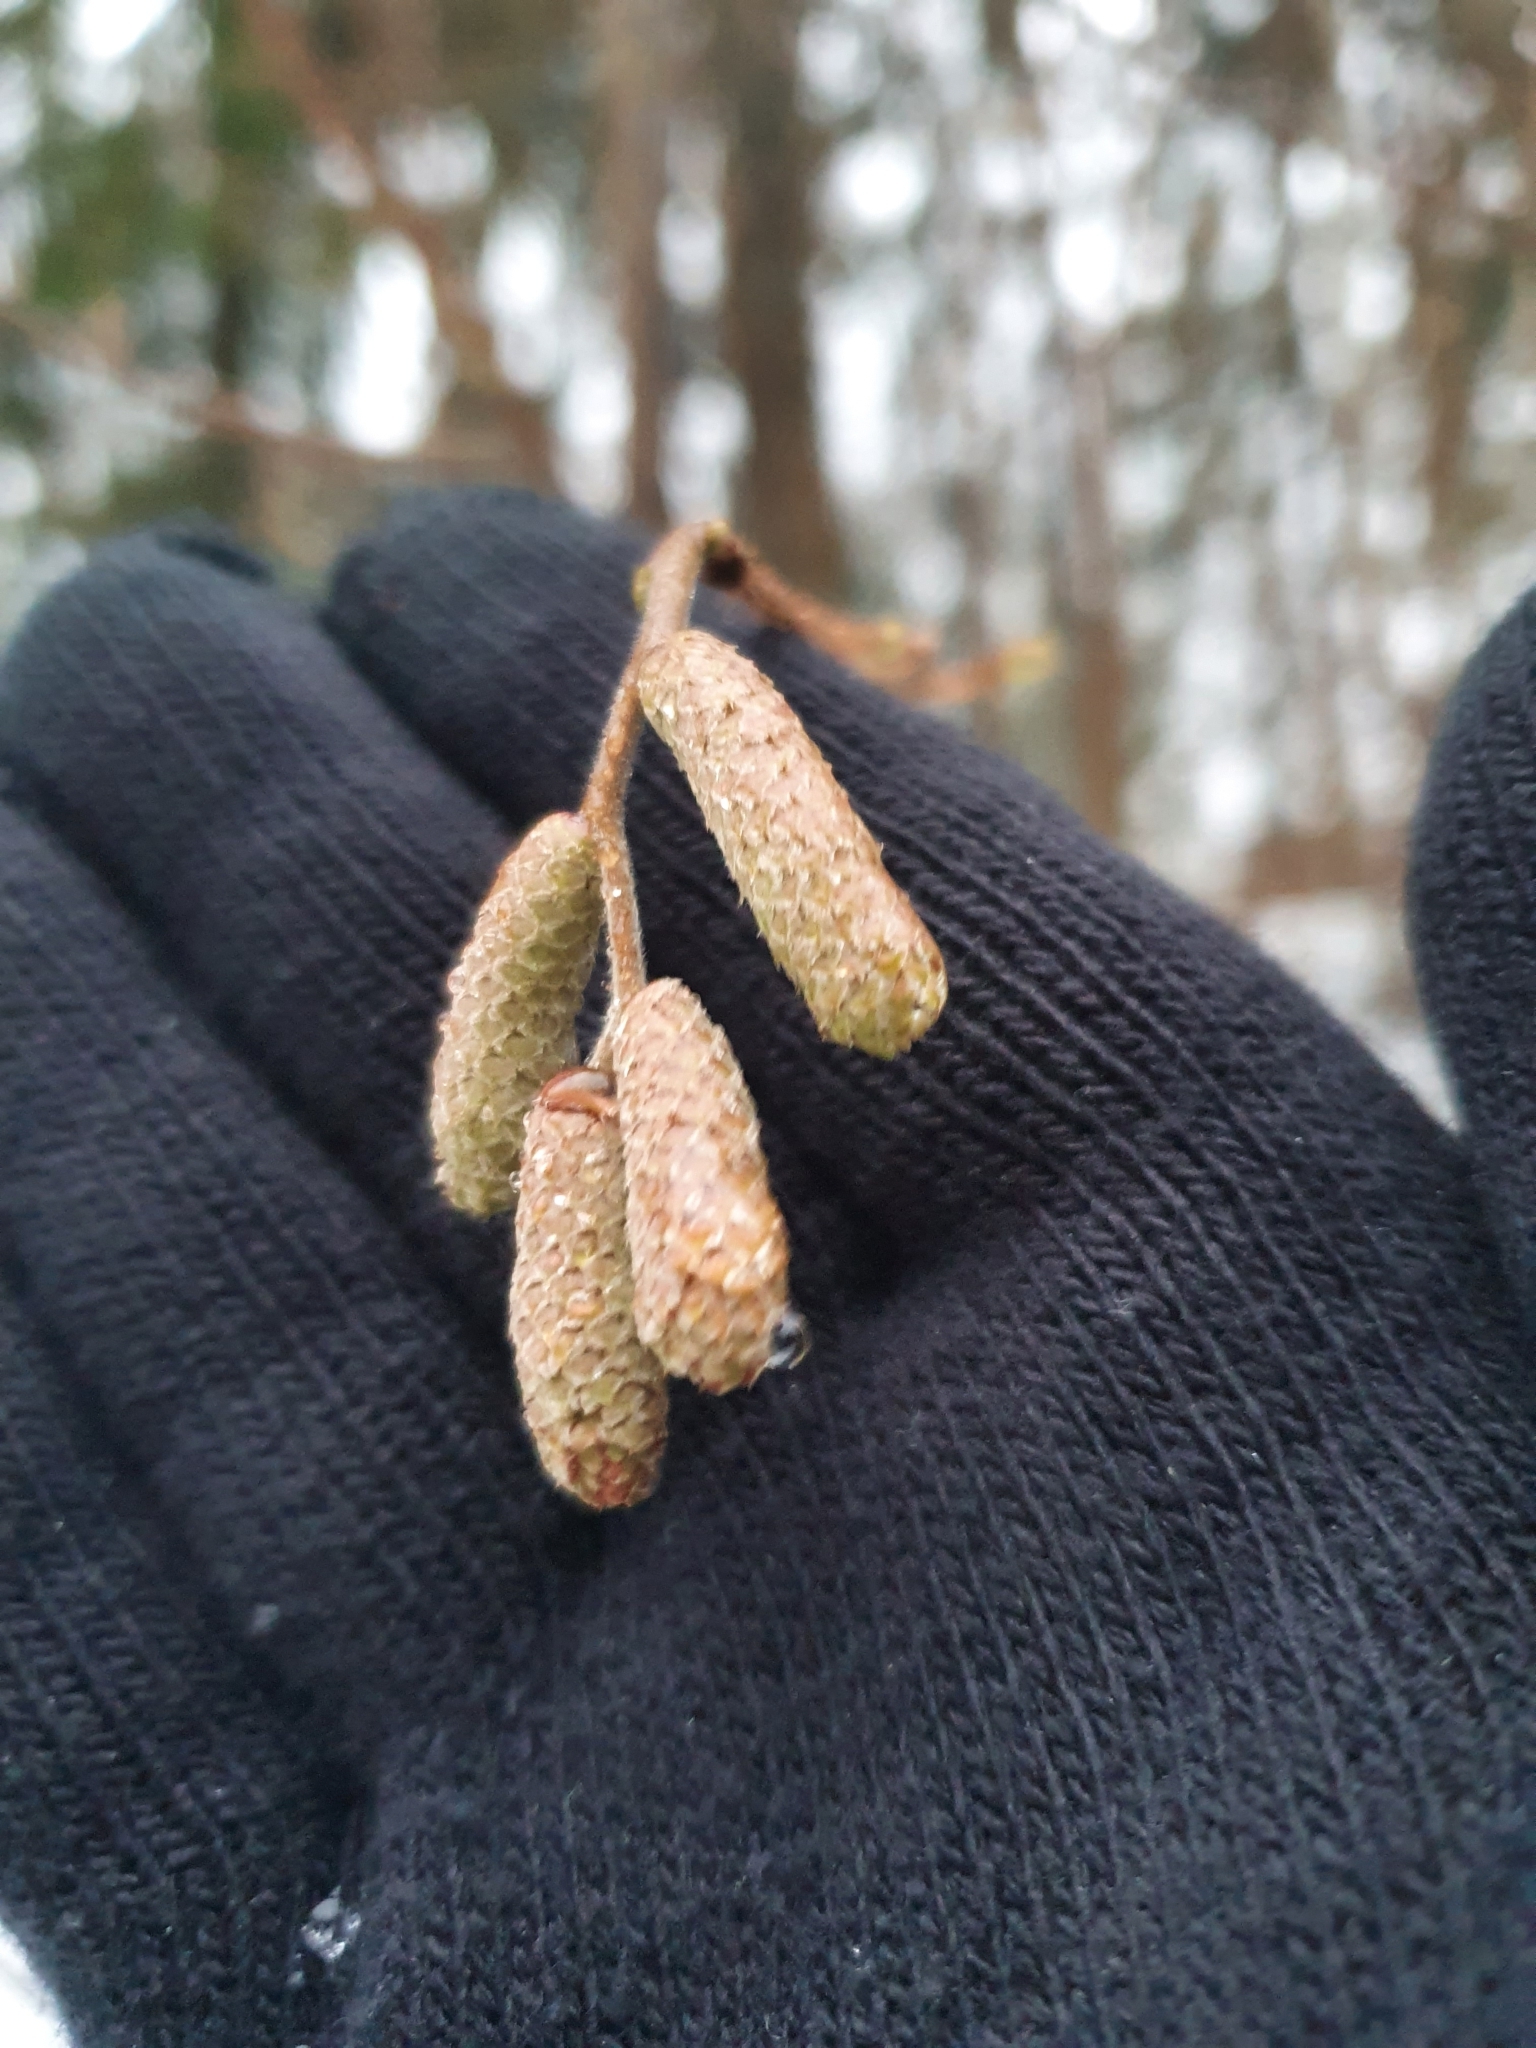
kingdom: Plantae
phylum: Tracheophyta
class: Magnoliopsida
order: Fagales
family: Betulaceae
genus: Corylus
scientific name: Corylus avellana
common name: European hazel
